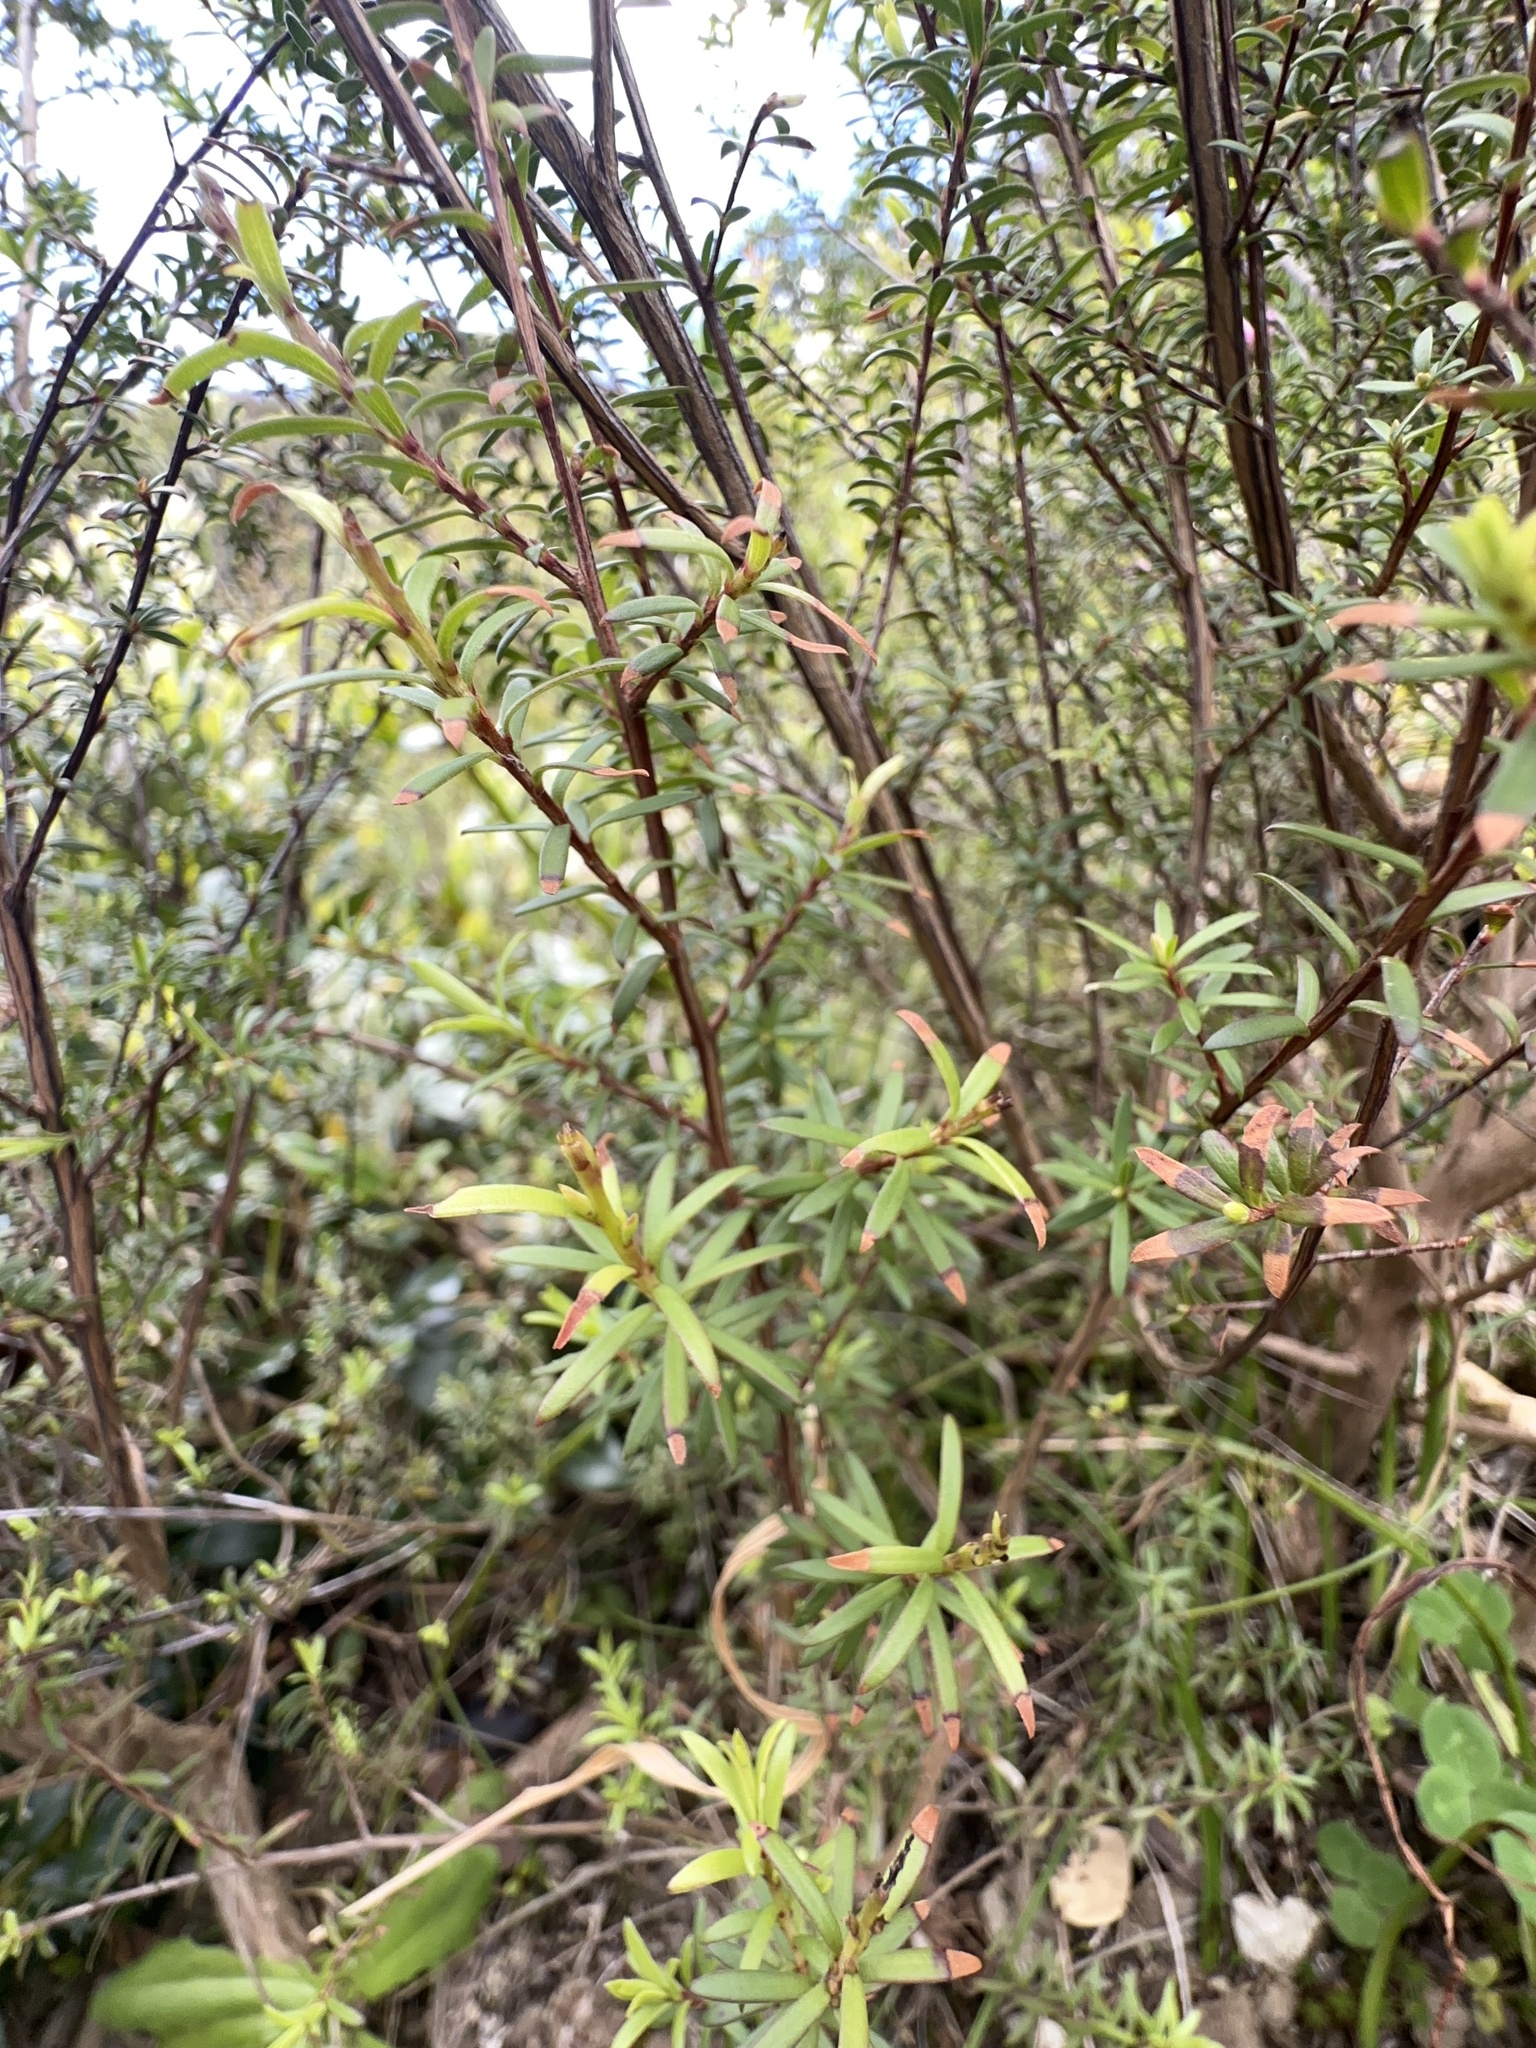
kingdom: Plantae
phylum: Tracheophyta
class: Magnoliopsida
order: Myrtales
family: Myrtaceae
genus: Kunzea
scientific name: Kunzea robusta
